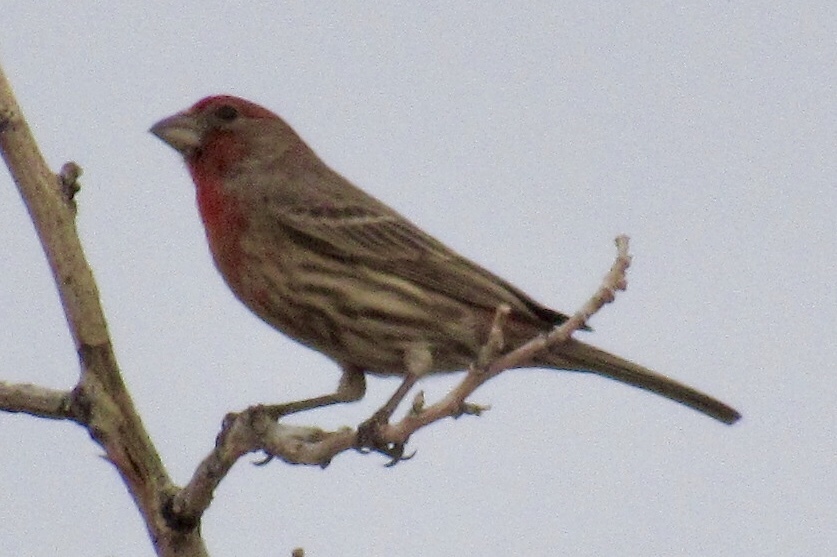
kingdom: Animalia
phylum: Chordata
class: Aves
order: Passeriformes
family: Fringillidae
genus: Haemorhous
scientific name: Haemorhous mexicanus
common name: House finch
